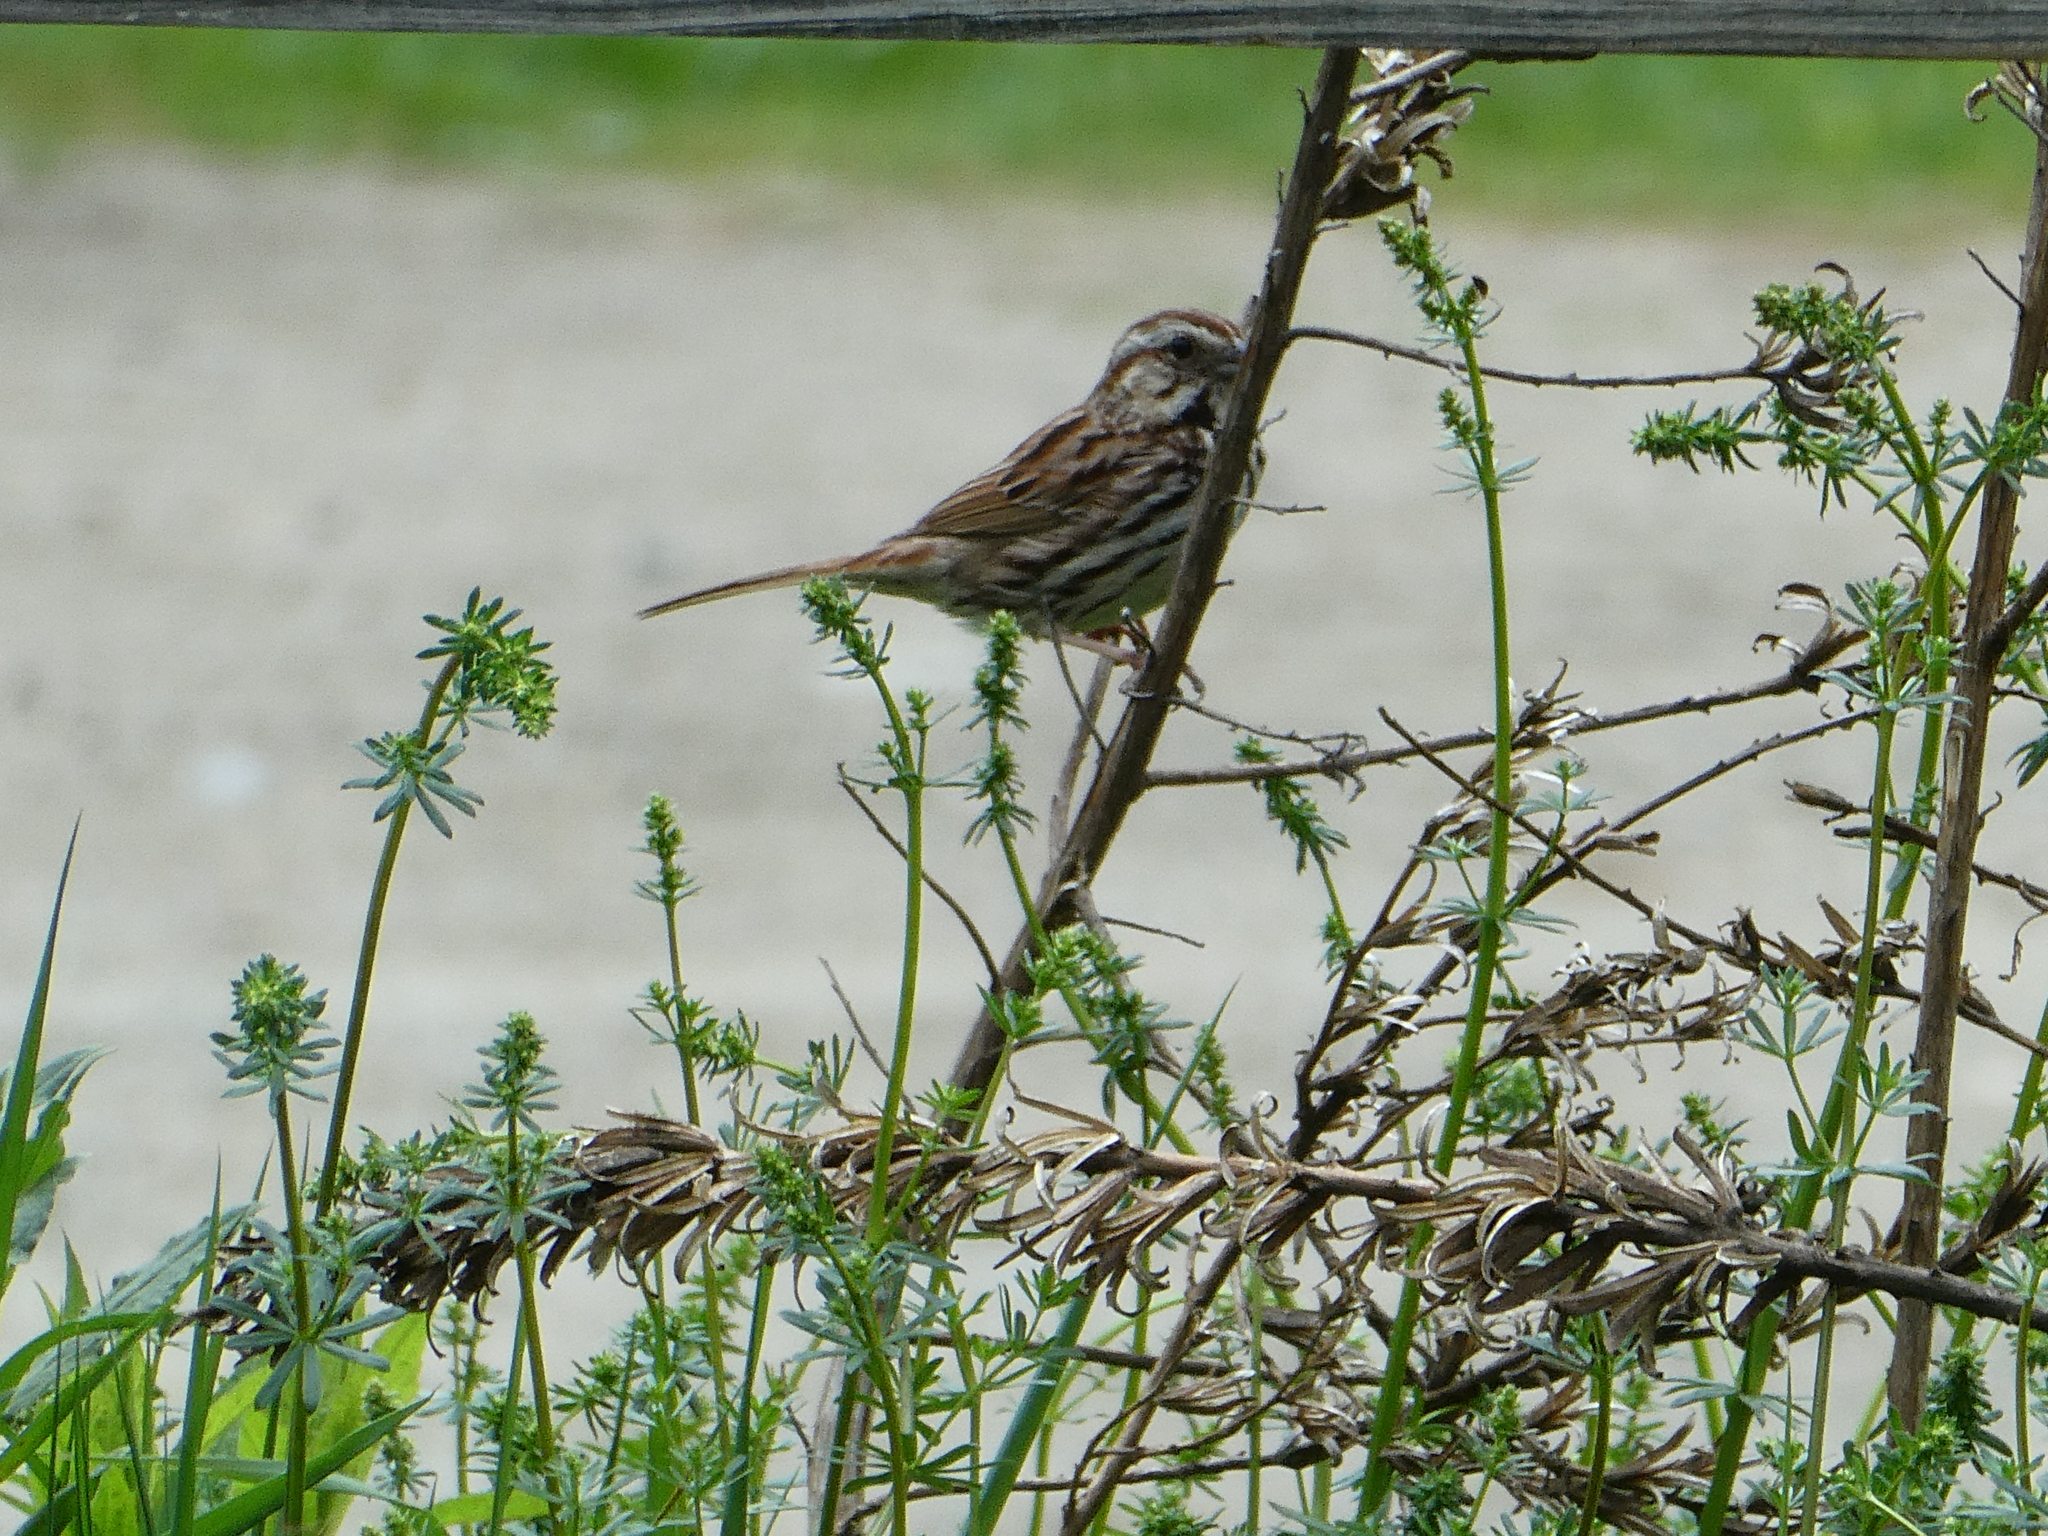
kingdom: Animalia
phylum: Chordata
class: Aves
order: Passeriformes
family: Passerellidae
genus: Melospiza
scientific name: Melospiza melodia
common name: Song sparrow
